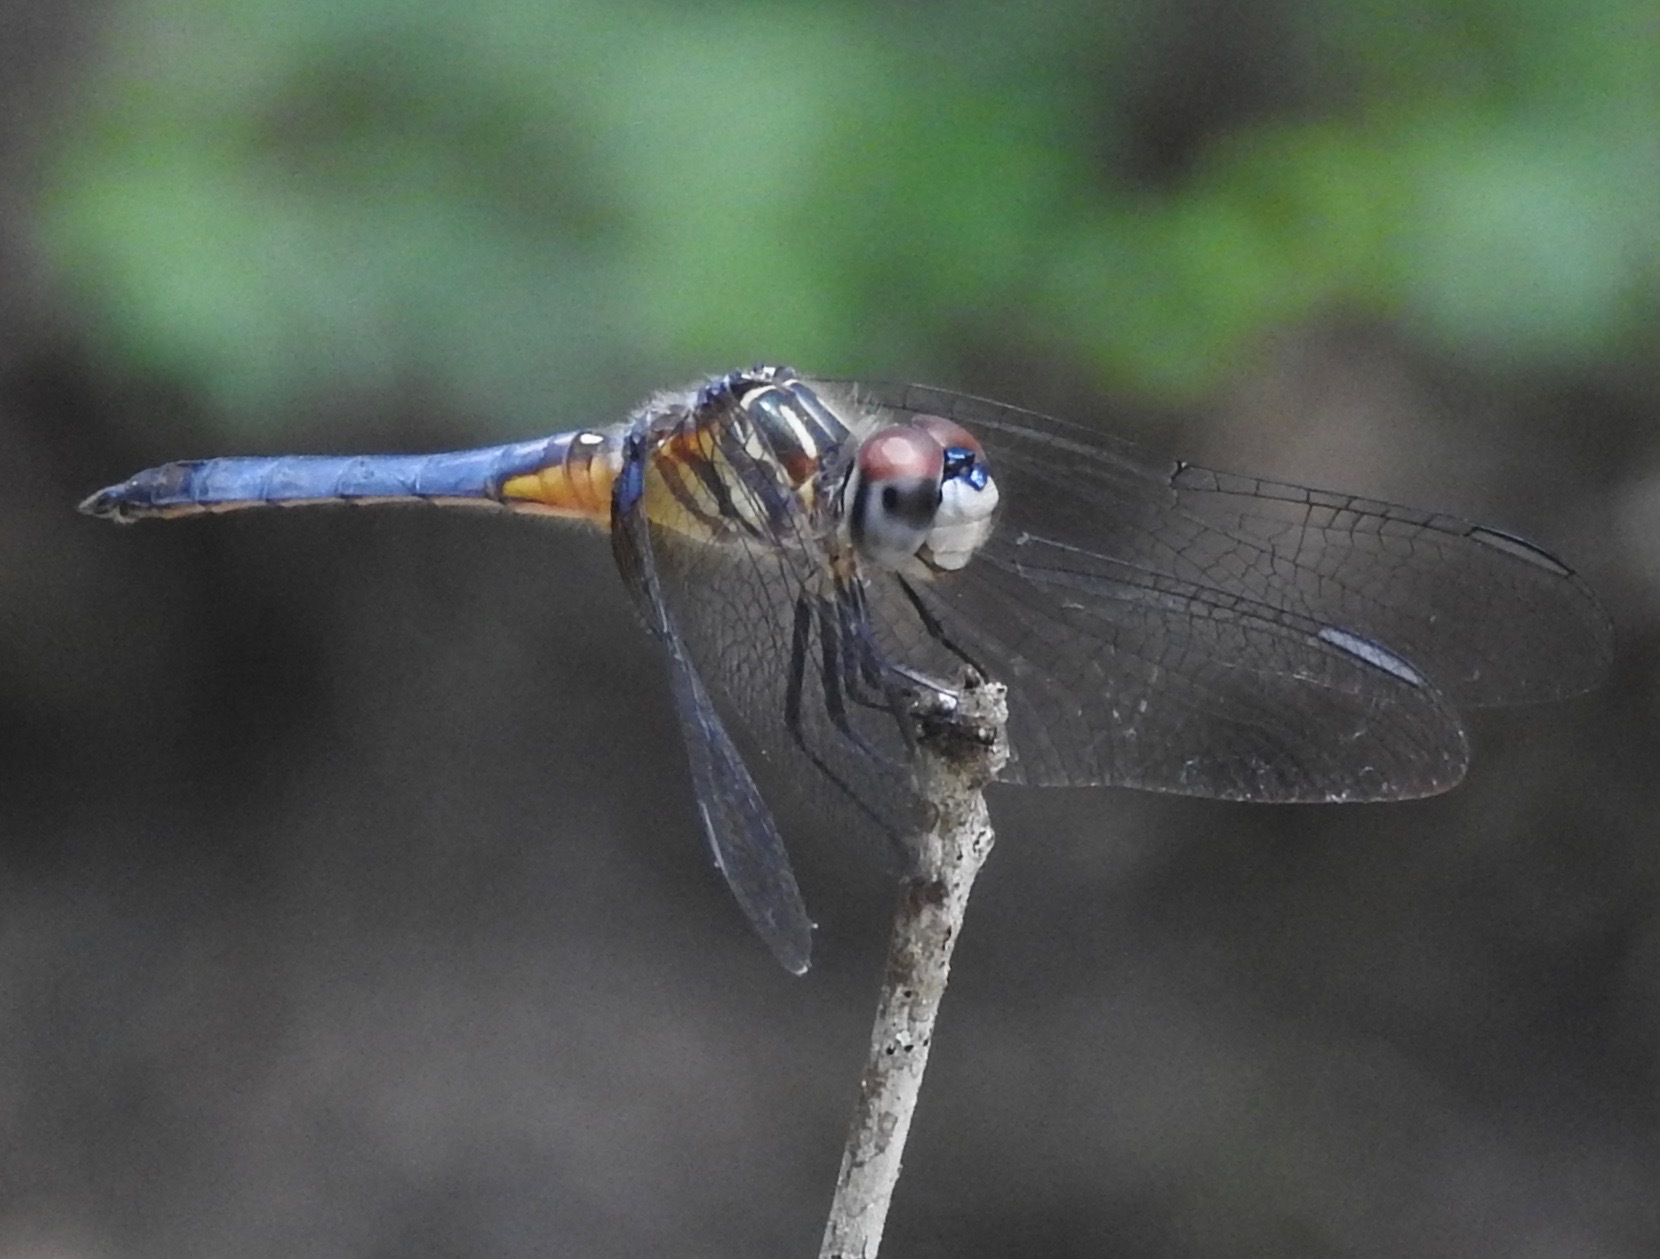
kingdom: Animalia
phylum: Arthropoda
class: Insecta
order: Odonata
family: Libellulidae
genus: Pachydiplax
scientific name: Pachydiplax longipennis
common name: Blue dasher
